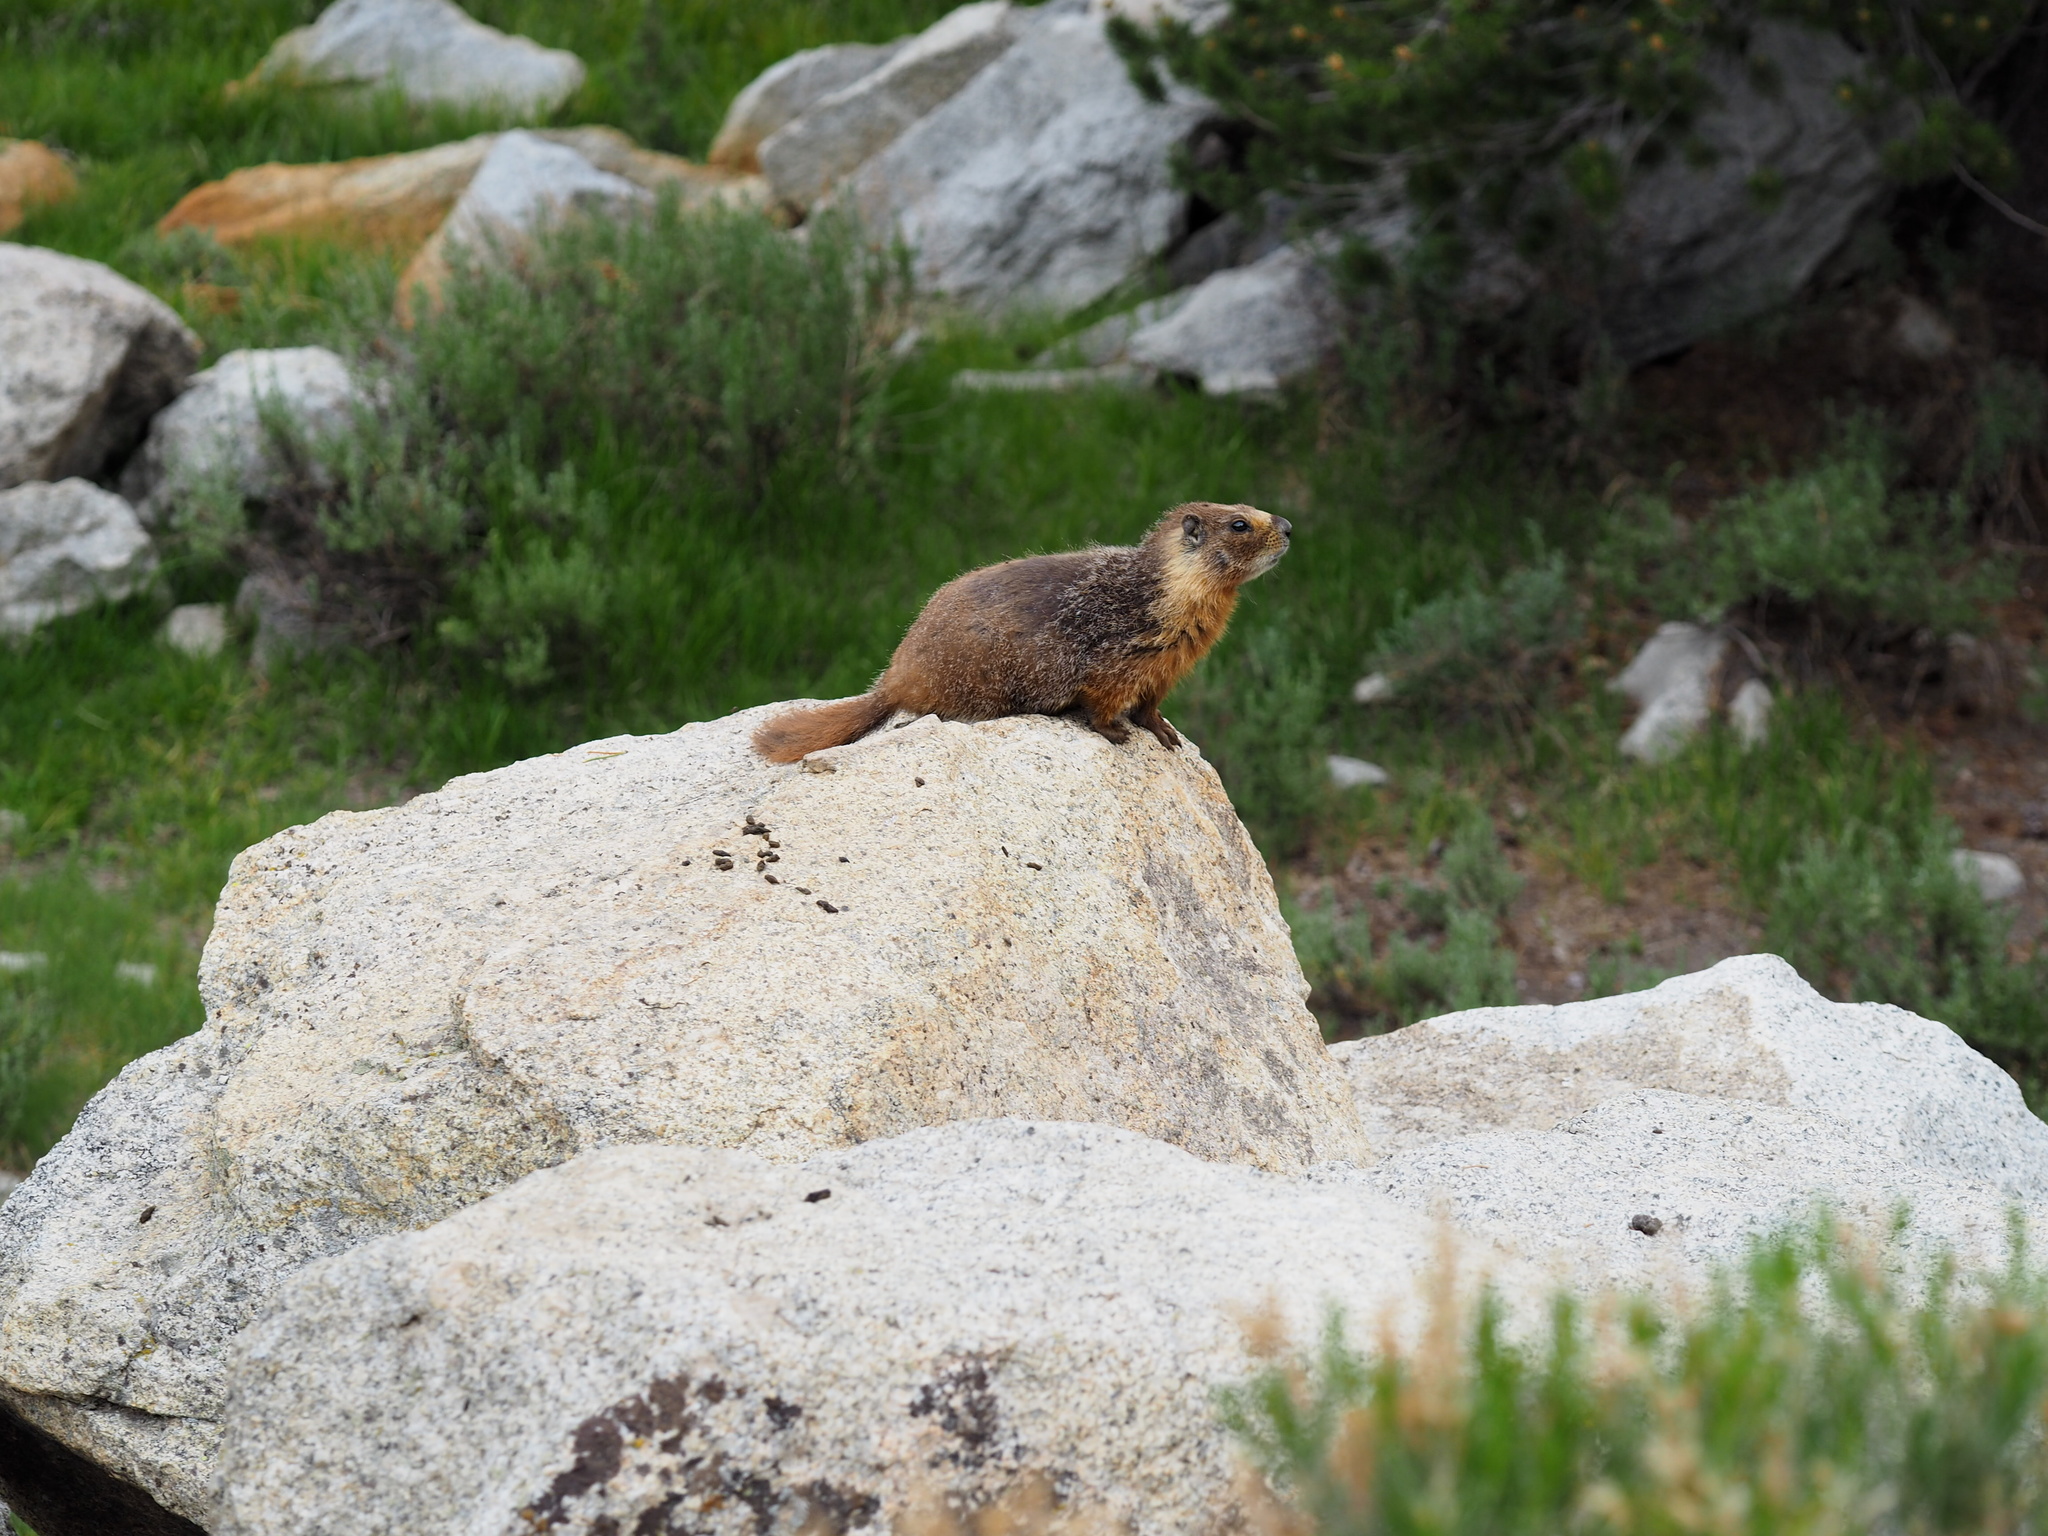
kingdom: Animalia
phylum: Chordata
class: Mammalia
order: Rodentia
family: Sciuridae
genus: Marmota
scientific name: Marmota flaviventris
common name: Yellow-bellied marmot
